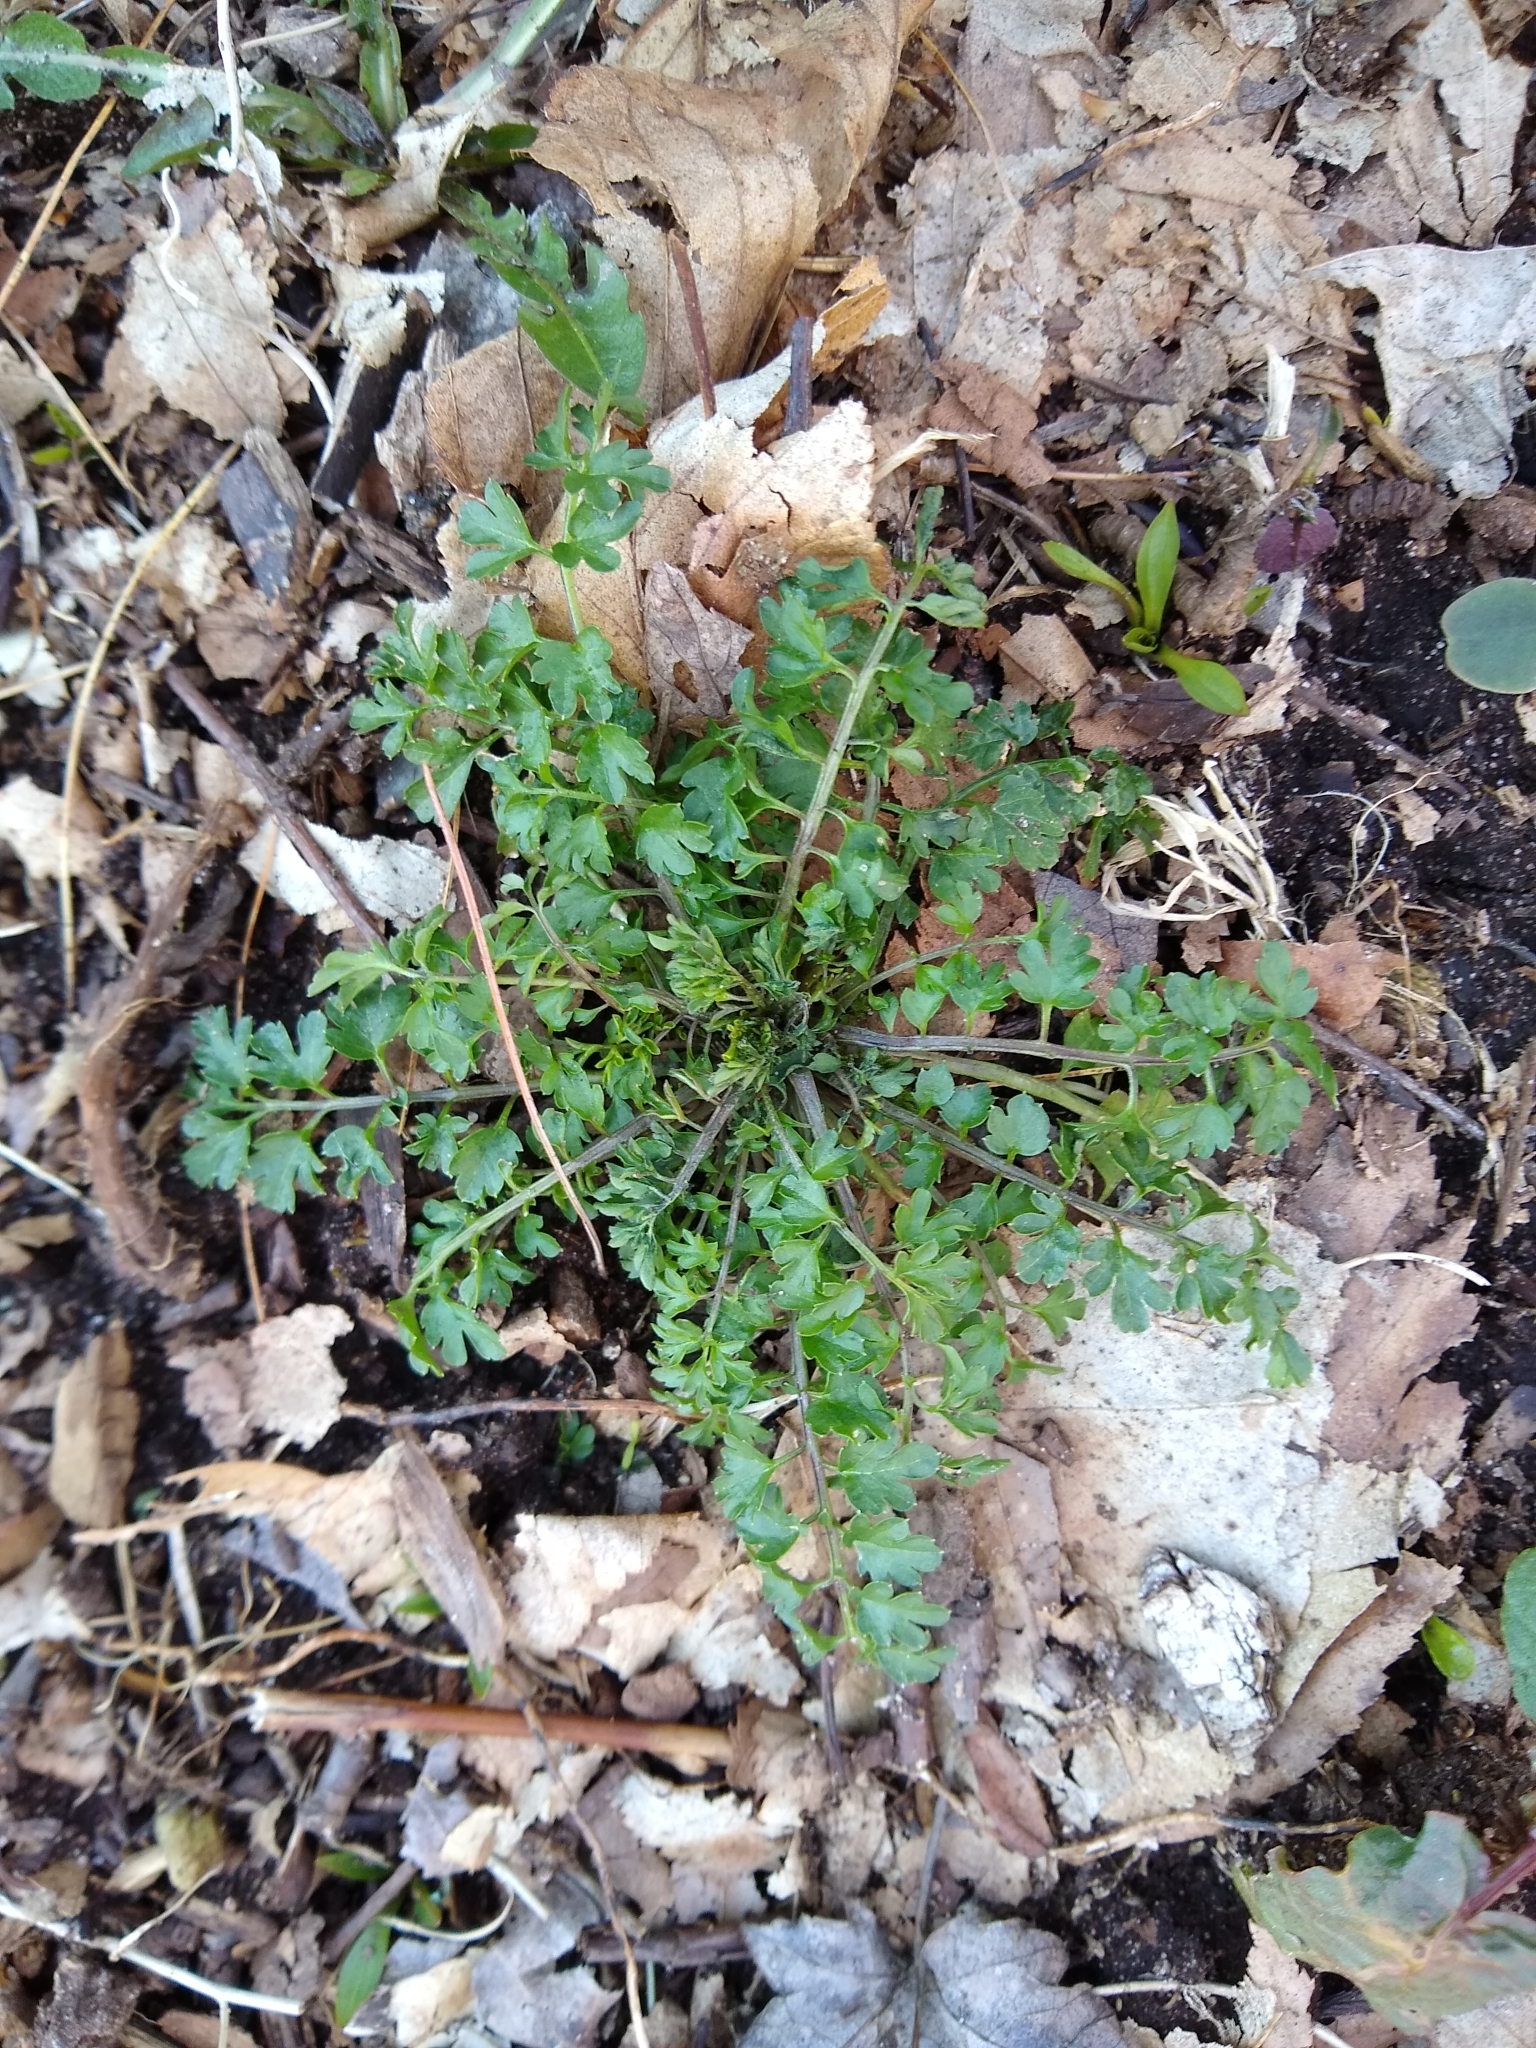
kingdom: Plantae
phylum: Tracheophyta
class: Magnoliopsida
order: Brassicales
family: Brassicaceae
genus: Cardamine
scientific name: Cardamine impatiens
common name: Narrow-leaved bitter-cress
